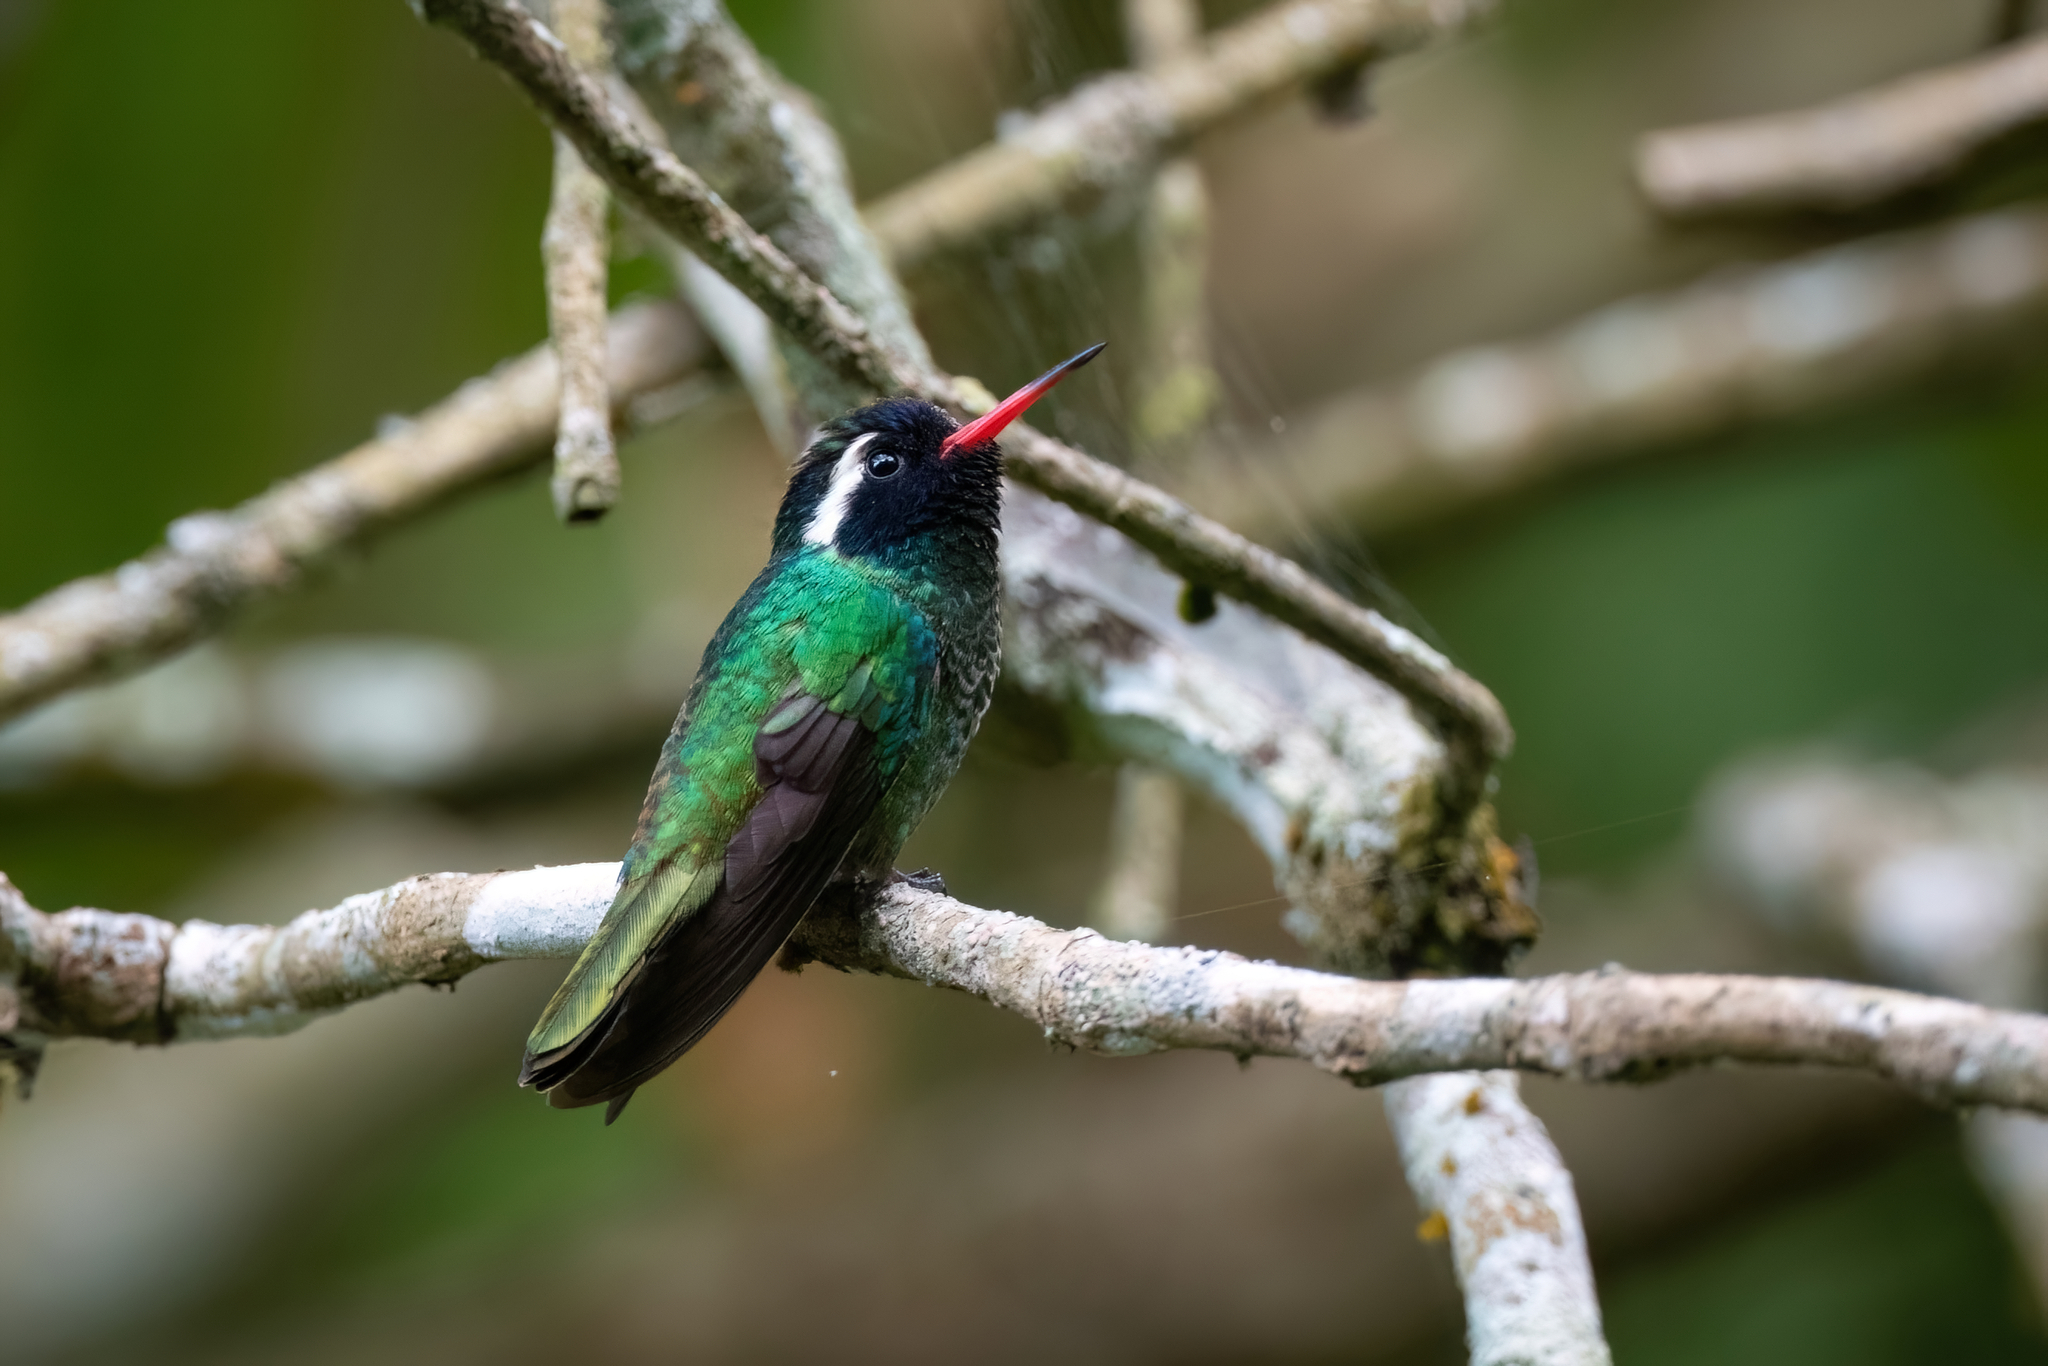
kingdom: Animalia
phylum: Chordata
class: Aves
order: Apodiformes
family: Trochilidae
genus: Basilinna
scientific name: Basilinna leucotis
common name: White-eared hummingbird
